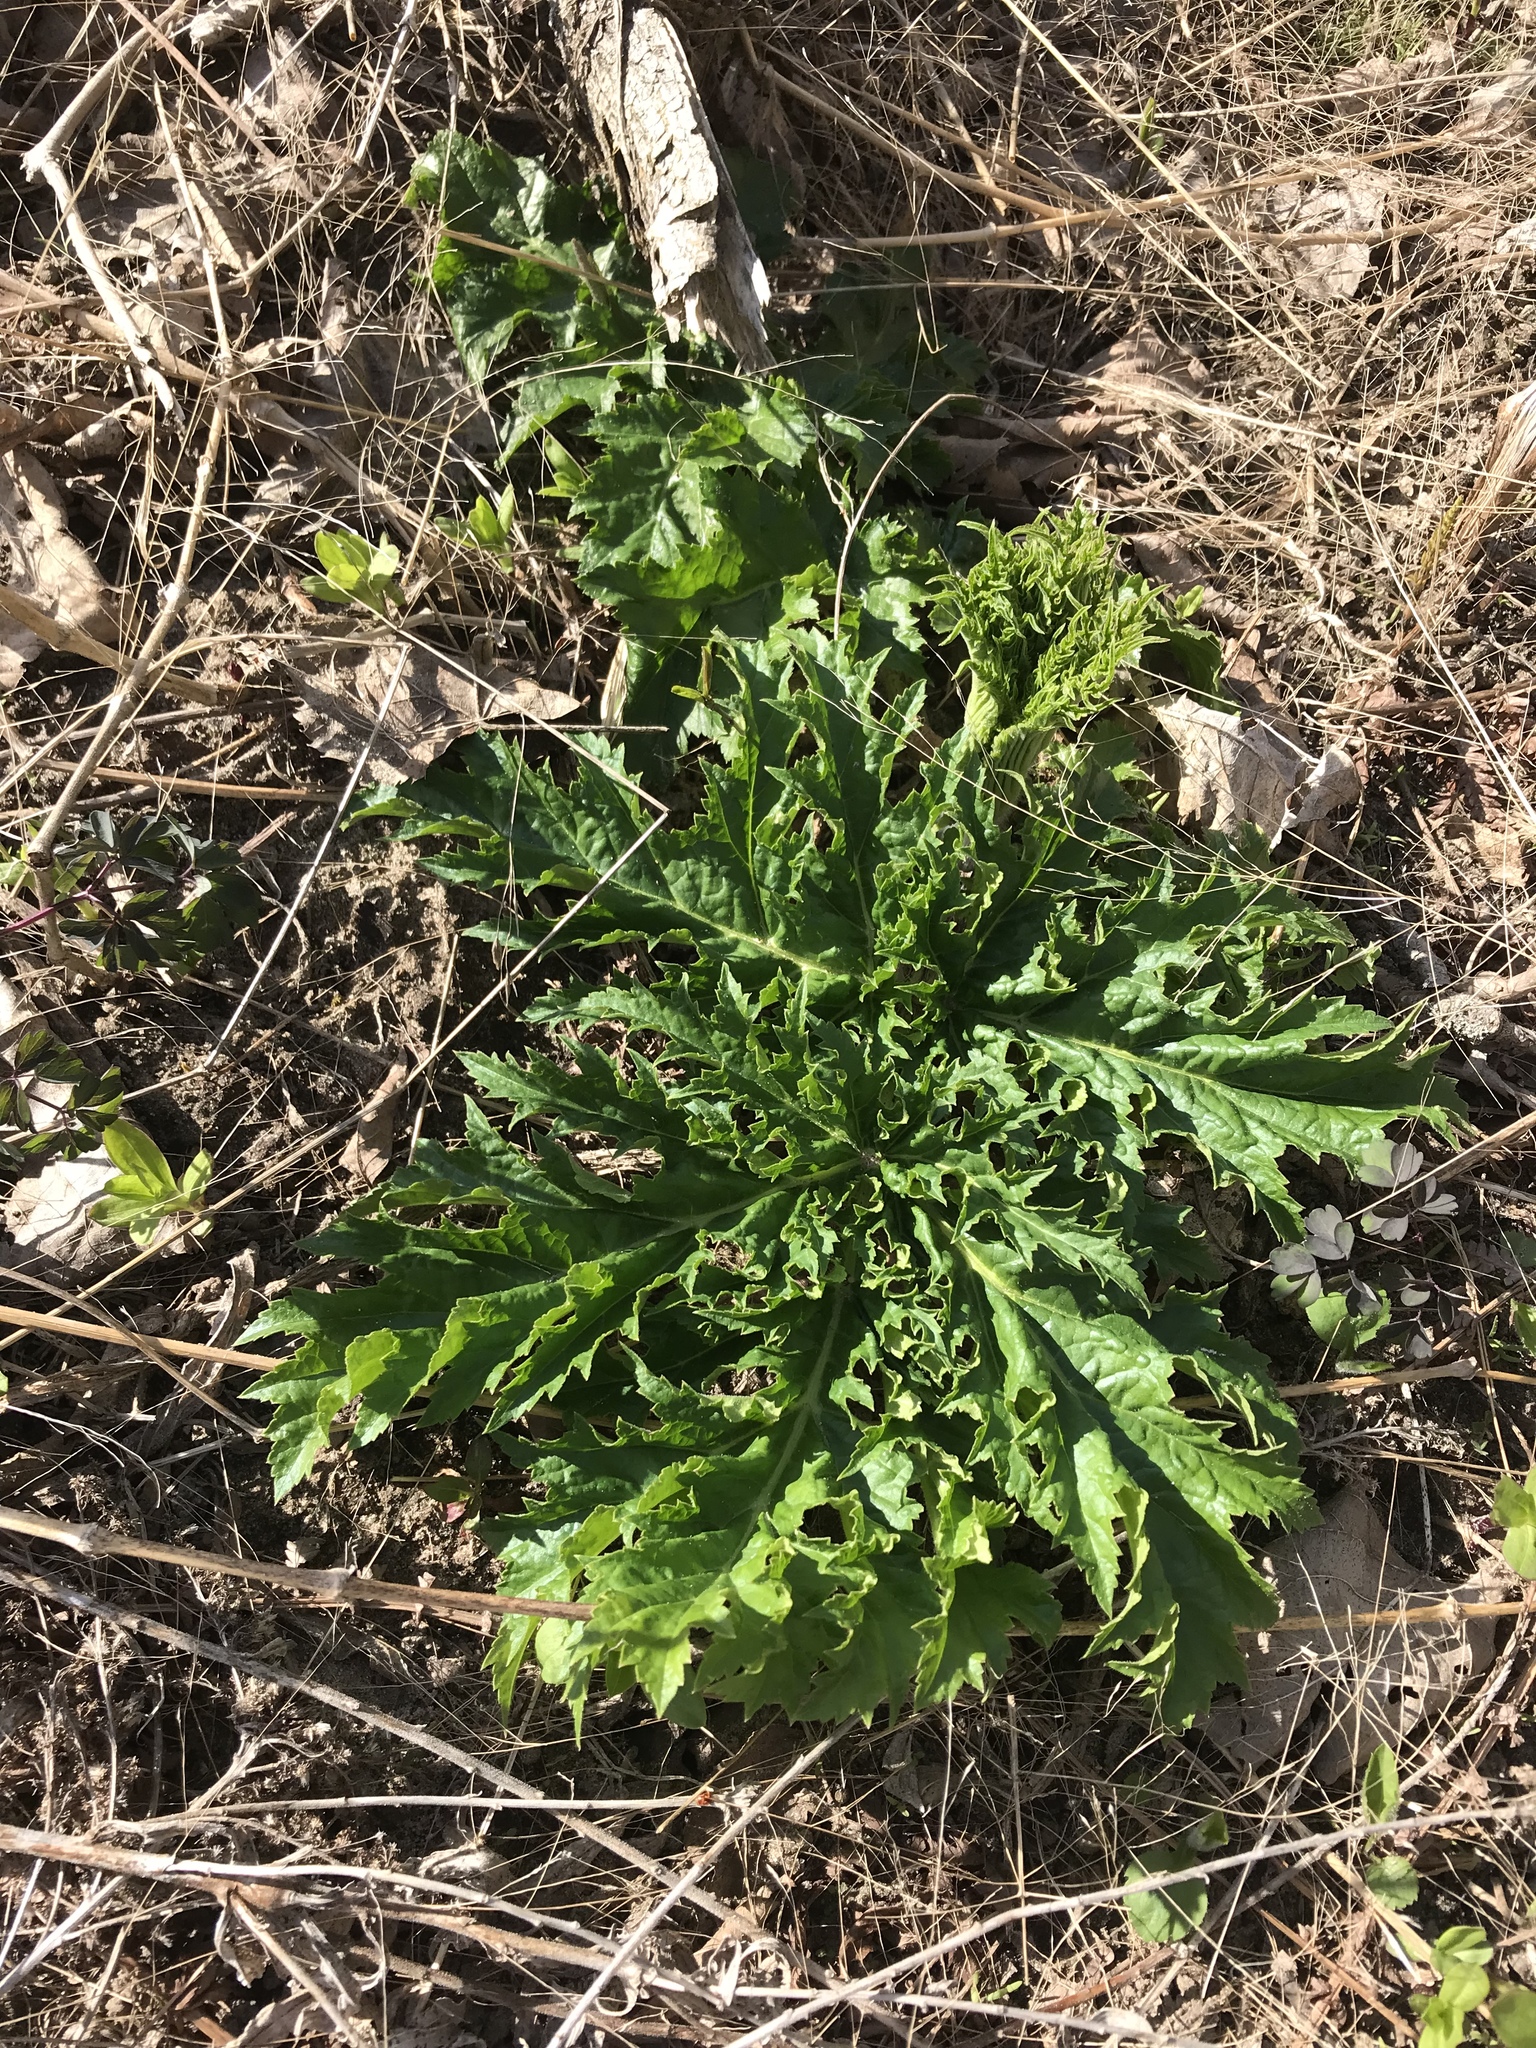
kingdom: Plantae
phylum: Tracheophyta
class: Magnoliopsida
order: Apiales
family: Apiaceae
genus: Heracleum
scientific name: Heracleum mantegazzianum
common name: Giant hogweed
